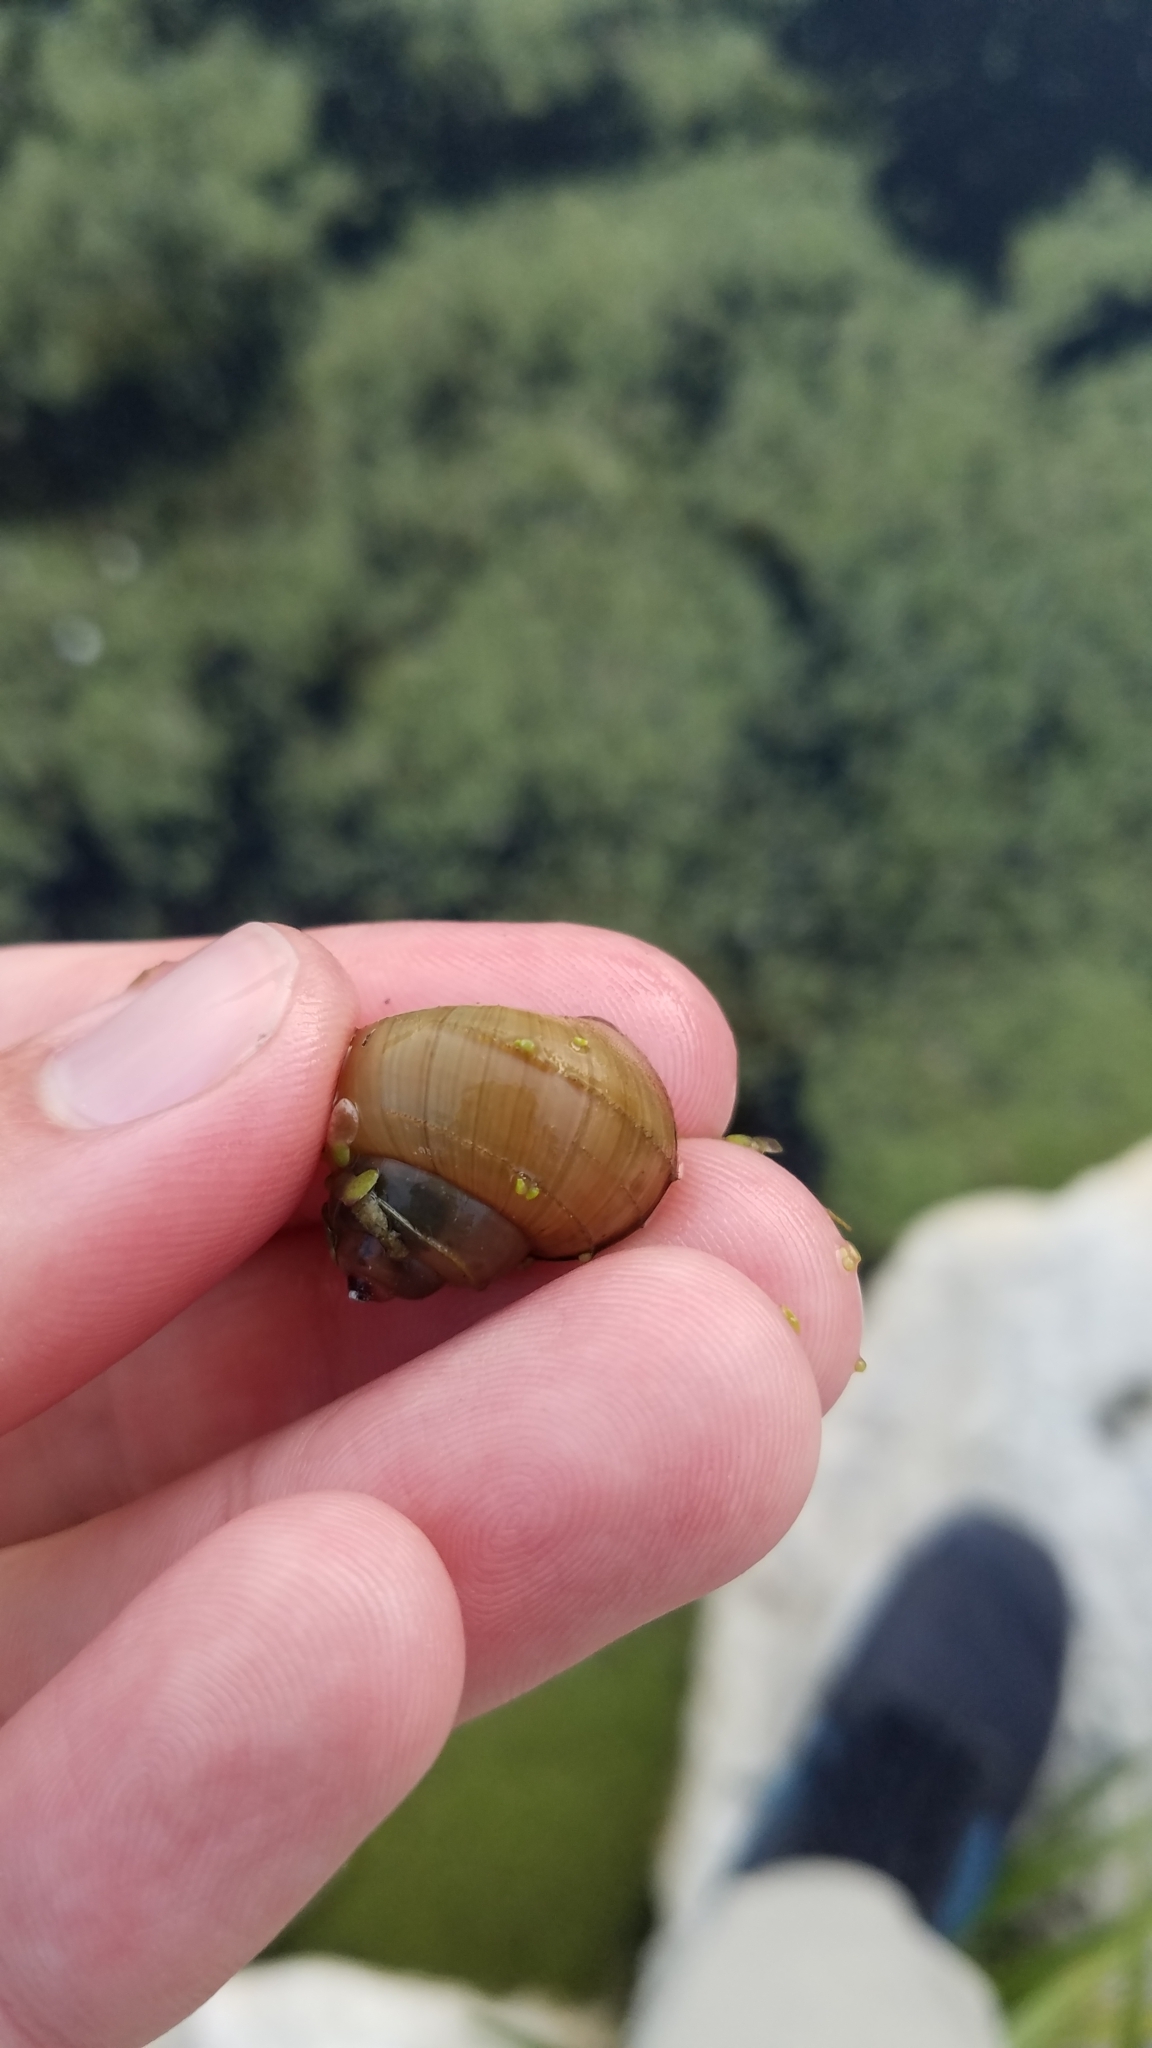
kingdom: Animalia
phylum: Mollusca
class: Gastropoda
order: Architaenioglossa
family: Viviparidae
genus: Callinina
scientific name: Callinina georgiana
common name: Banded mystery snail
